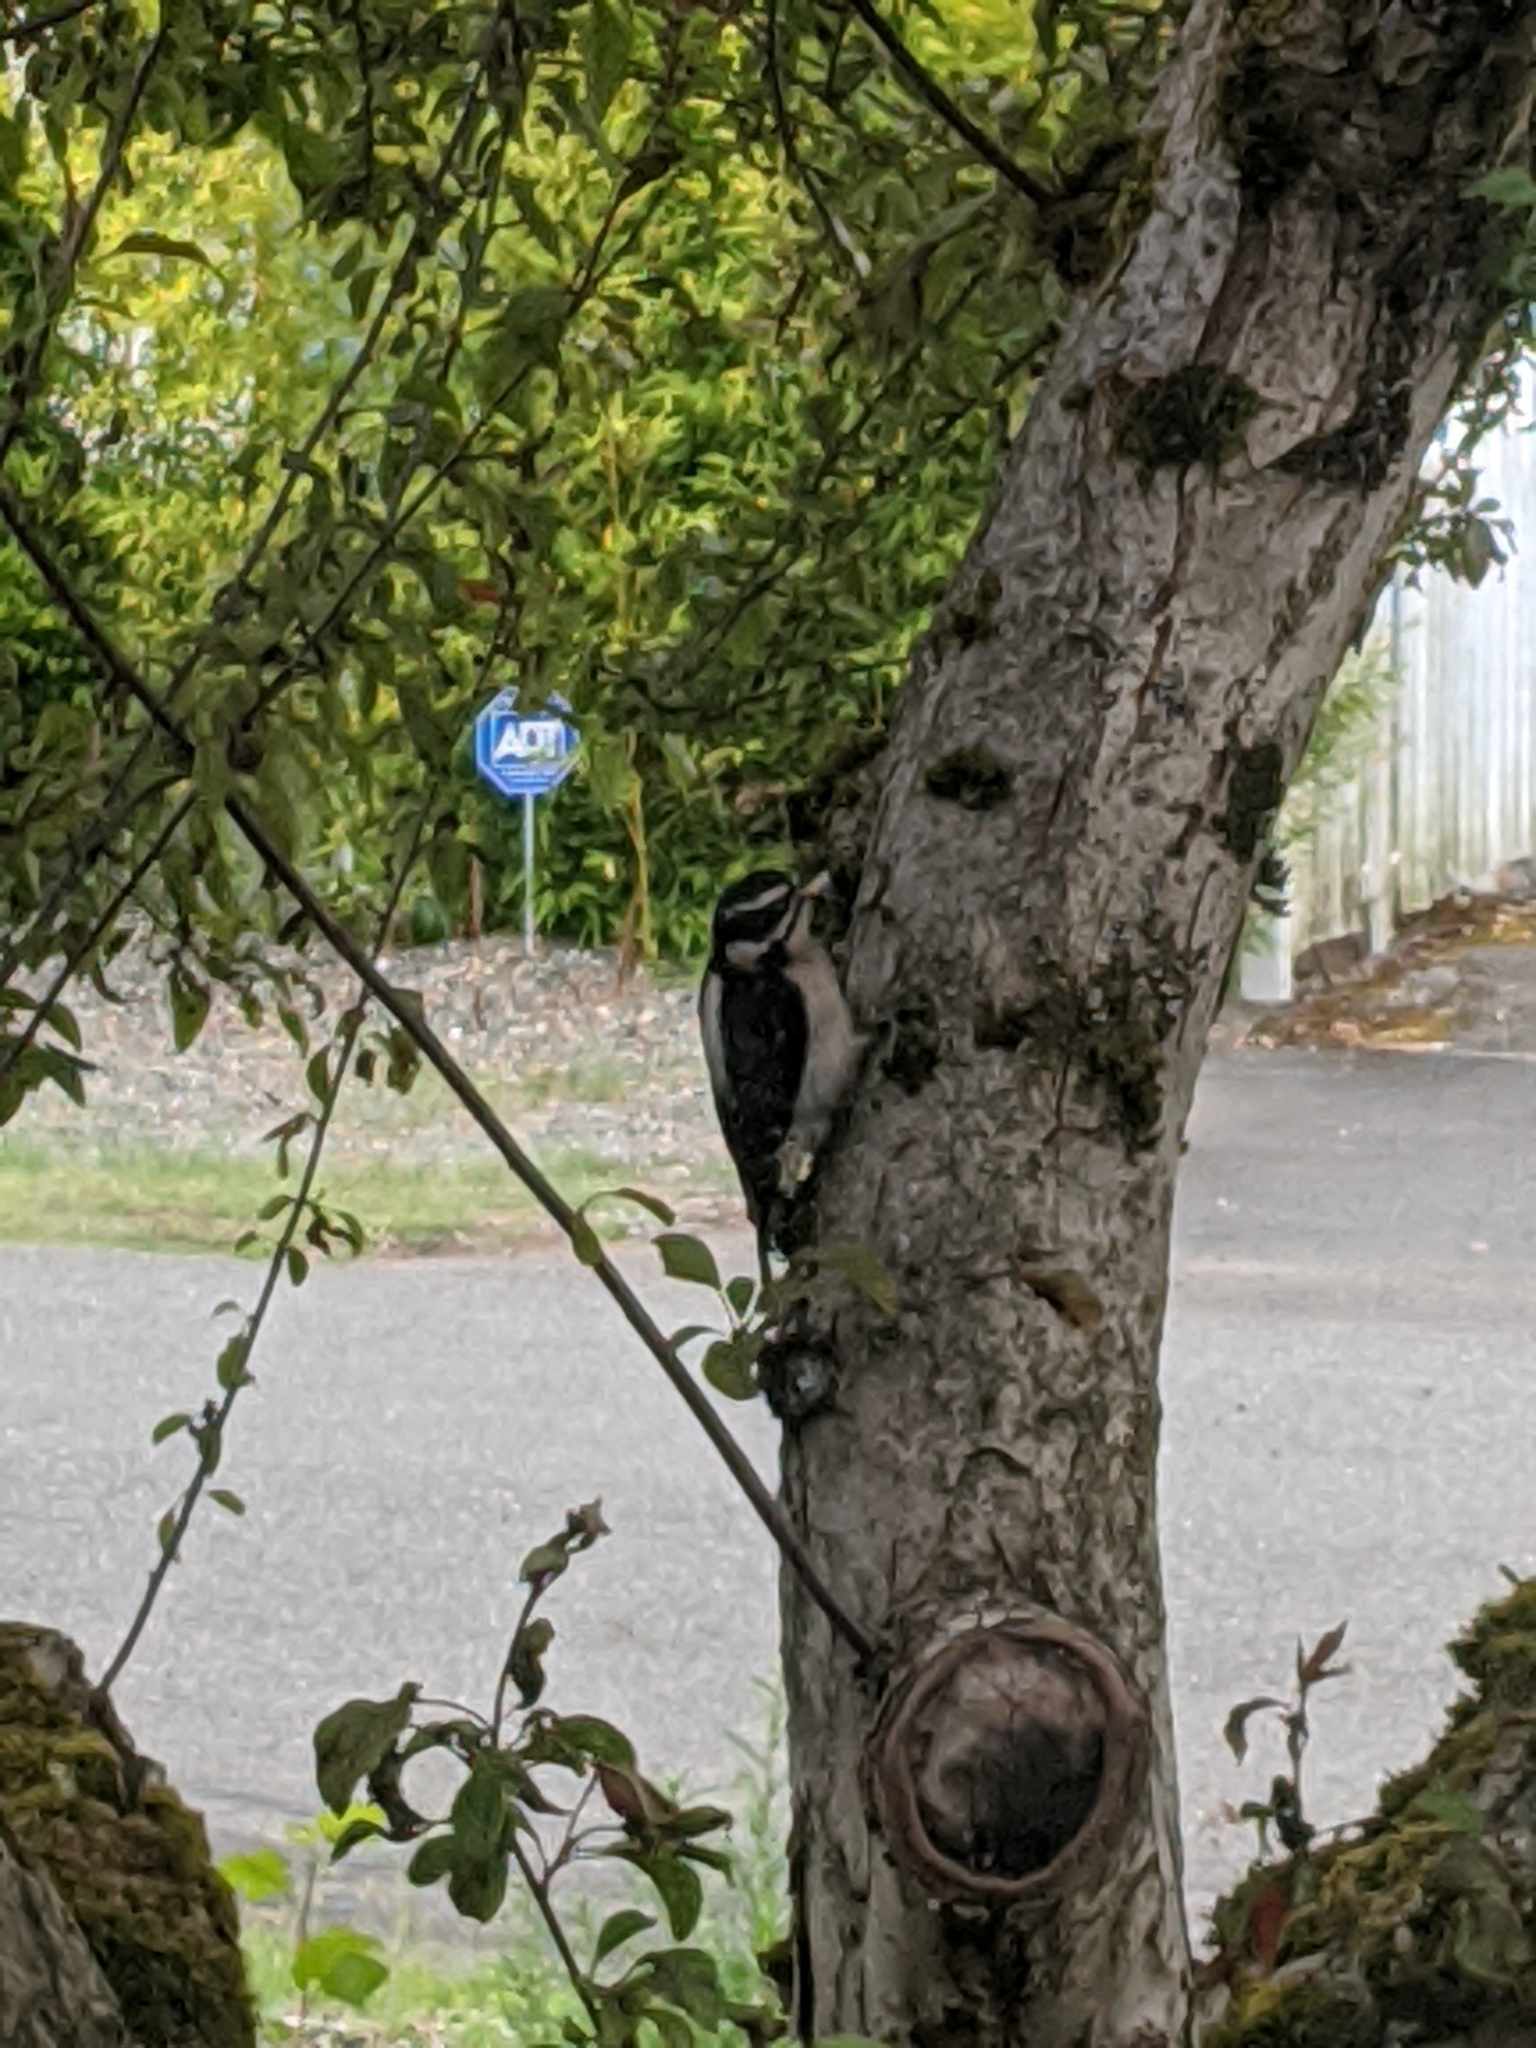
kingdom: Animalia
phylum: Chordata
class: Aves
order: Piciformes
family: Picidae
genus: Leuconotopicus
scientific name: Leuconotopicus villosus
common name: Hairy woodpecker
